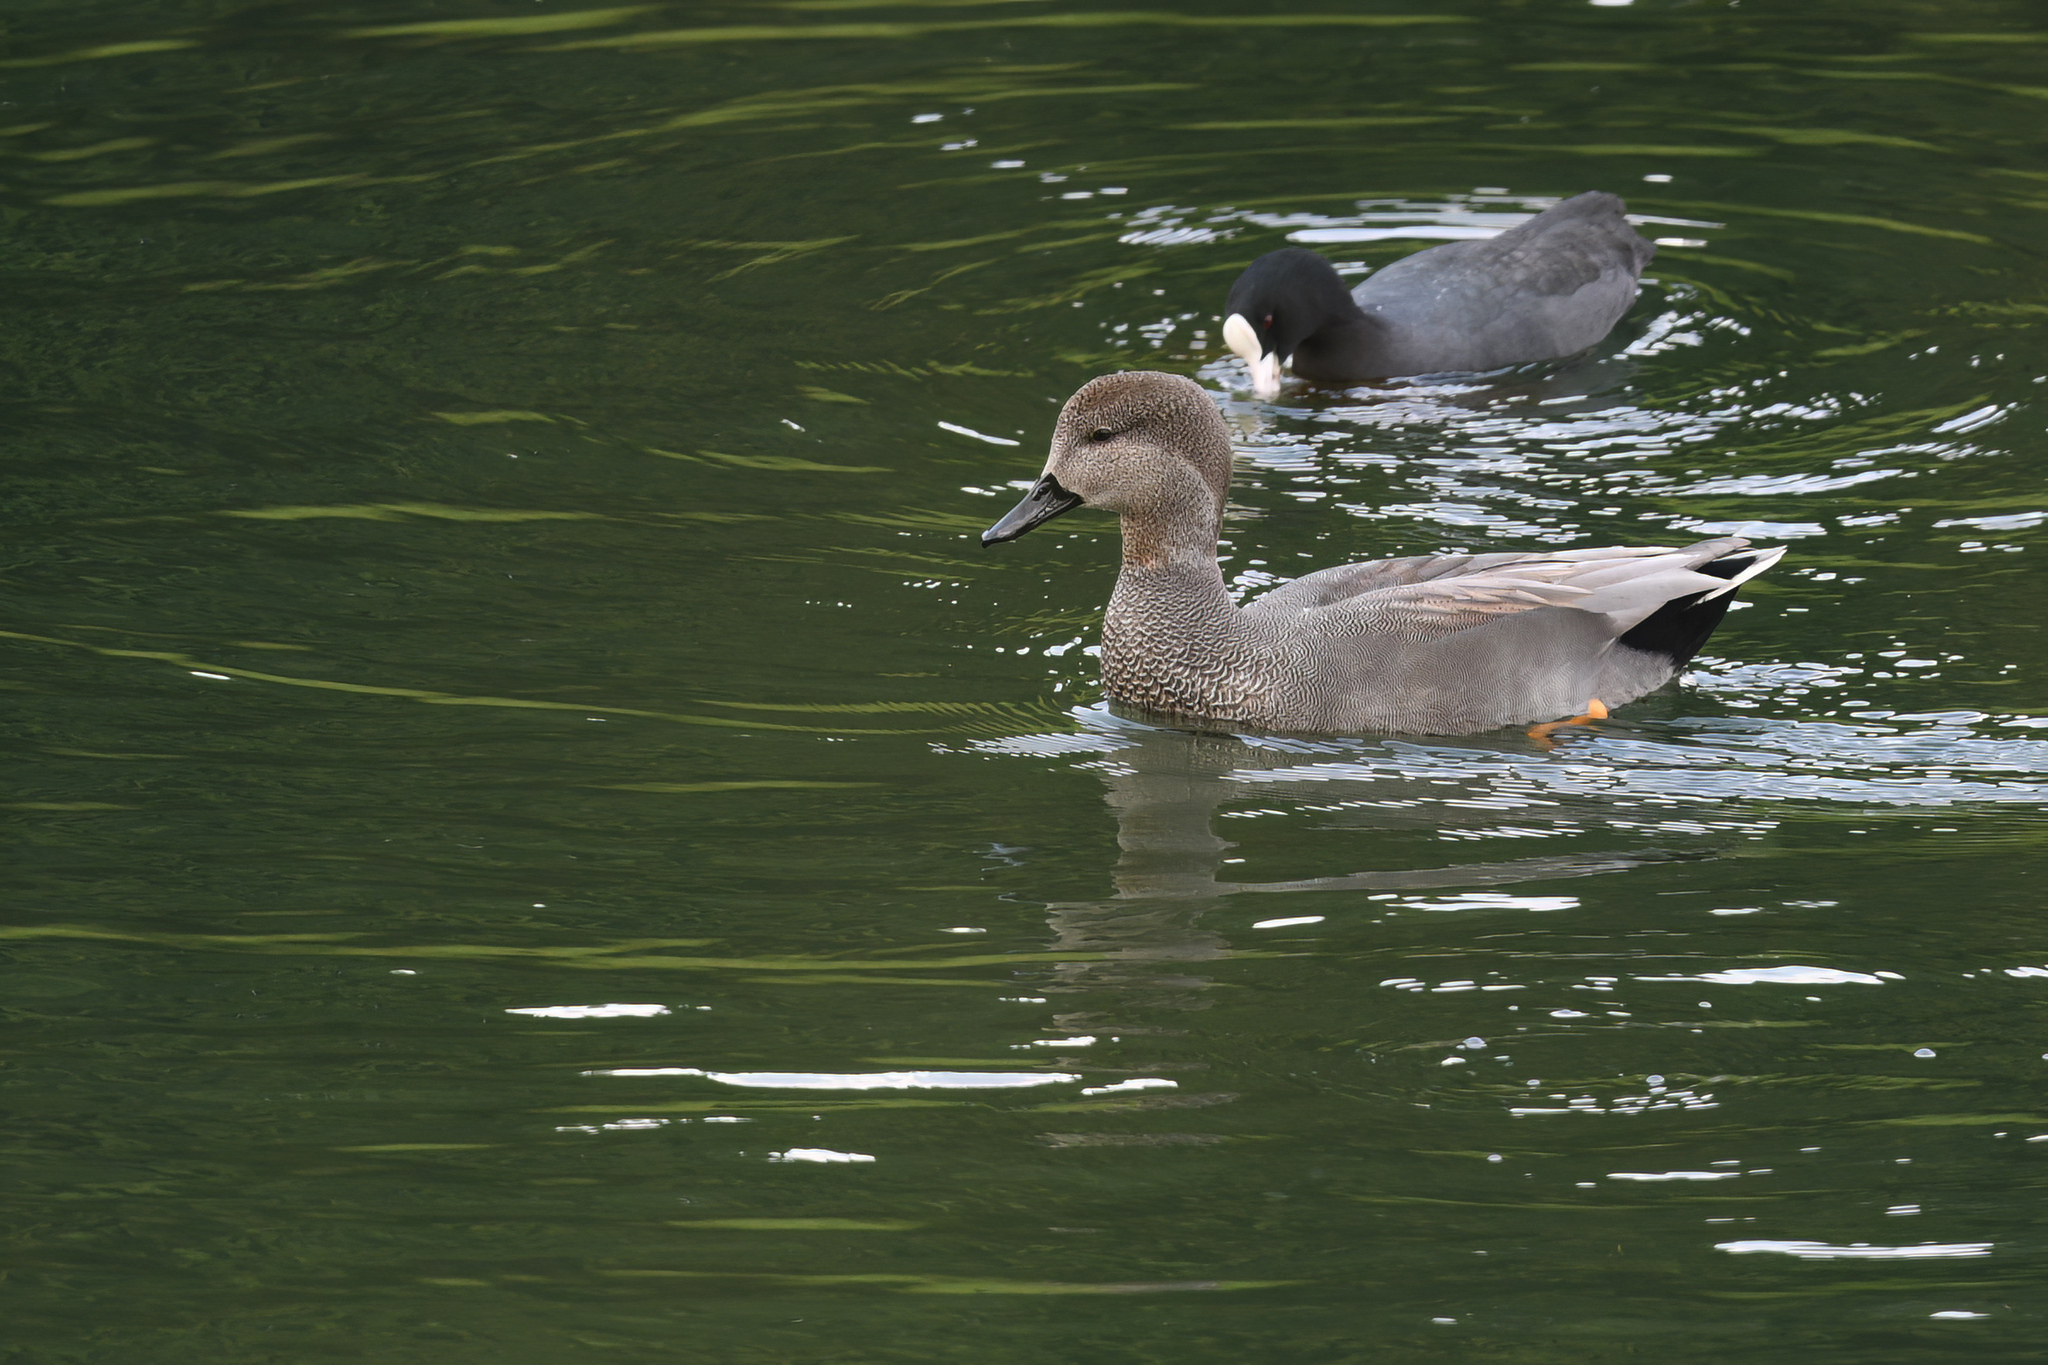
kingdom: Animalia
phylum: Chordata
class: Aves
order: Anseriformes
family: Anatidae
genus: Mareca
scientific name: Mareca strepera
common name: Gadwall
